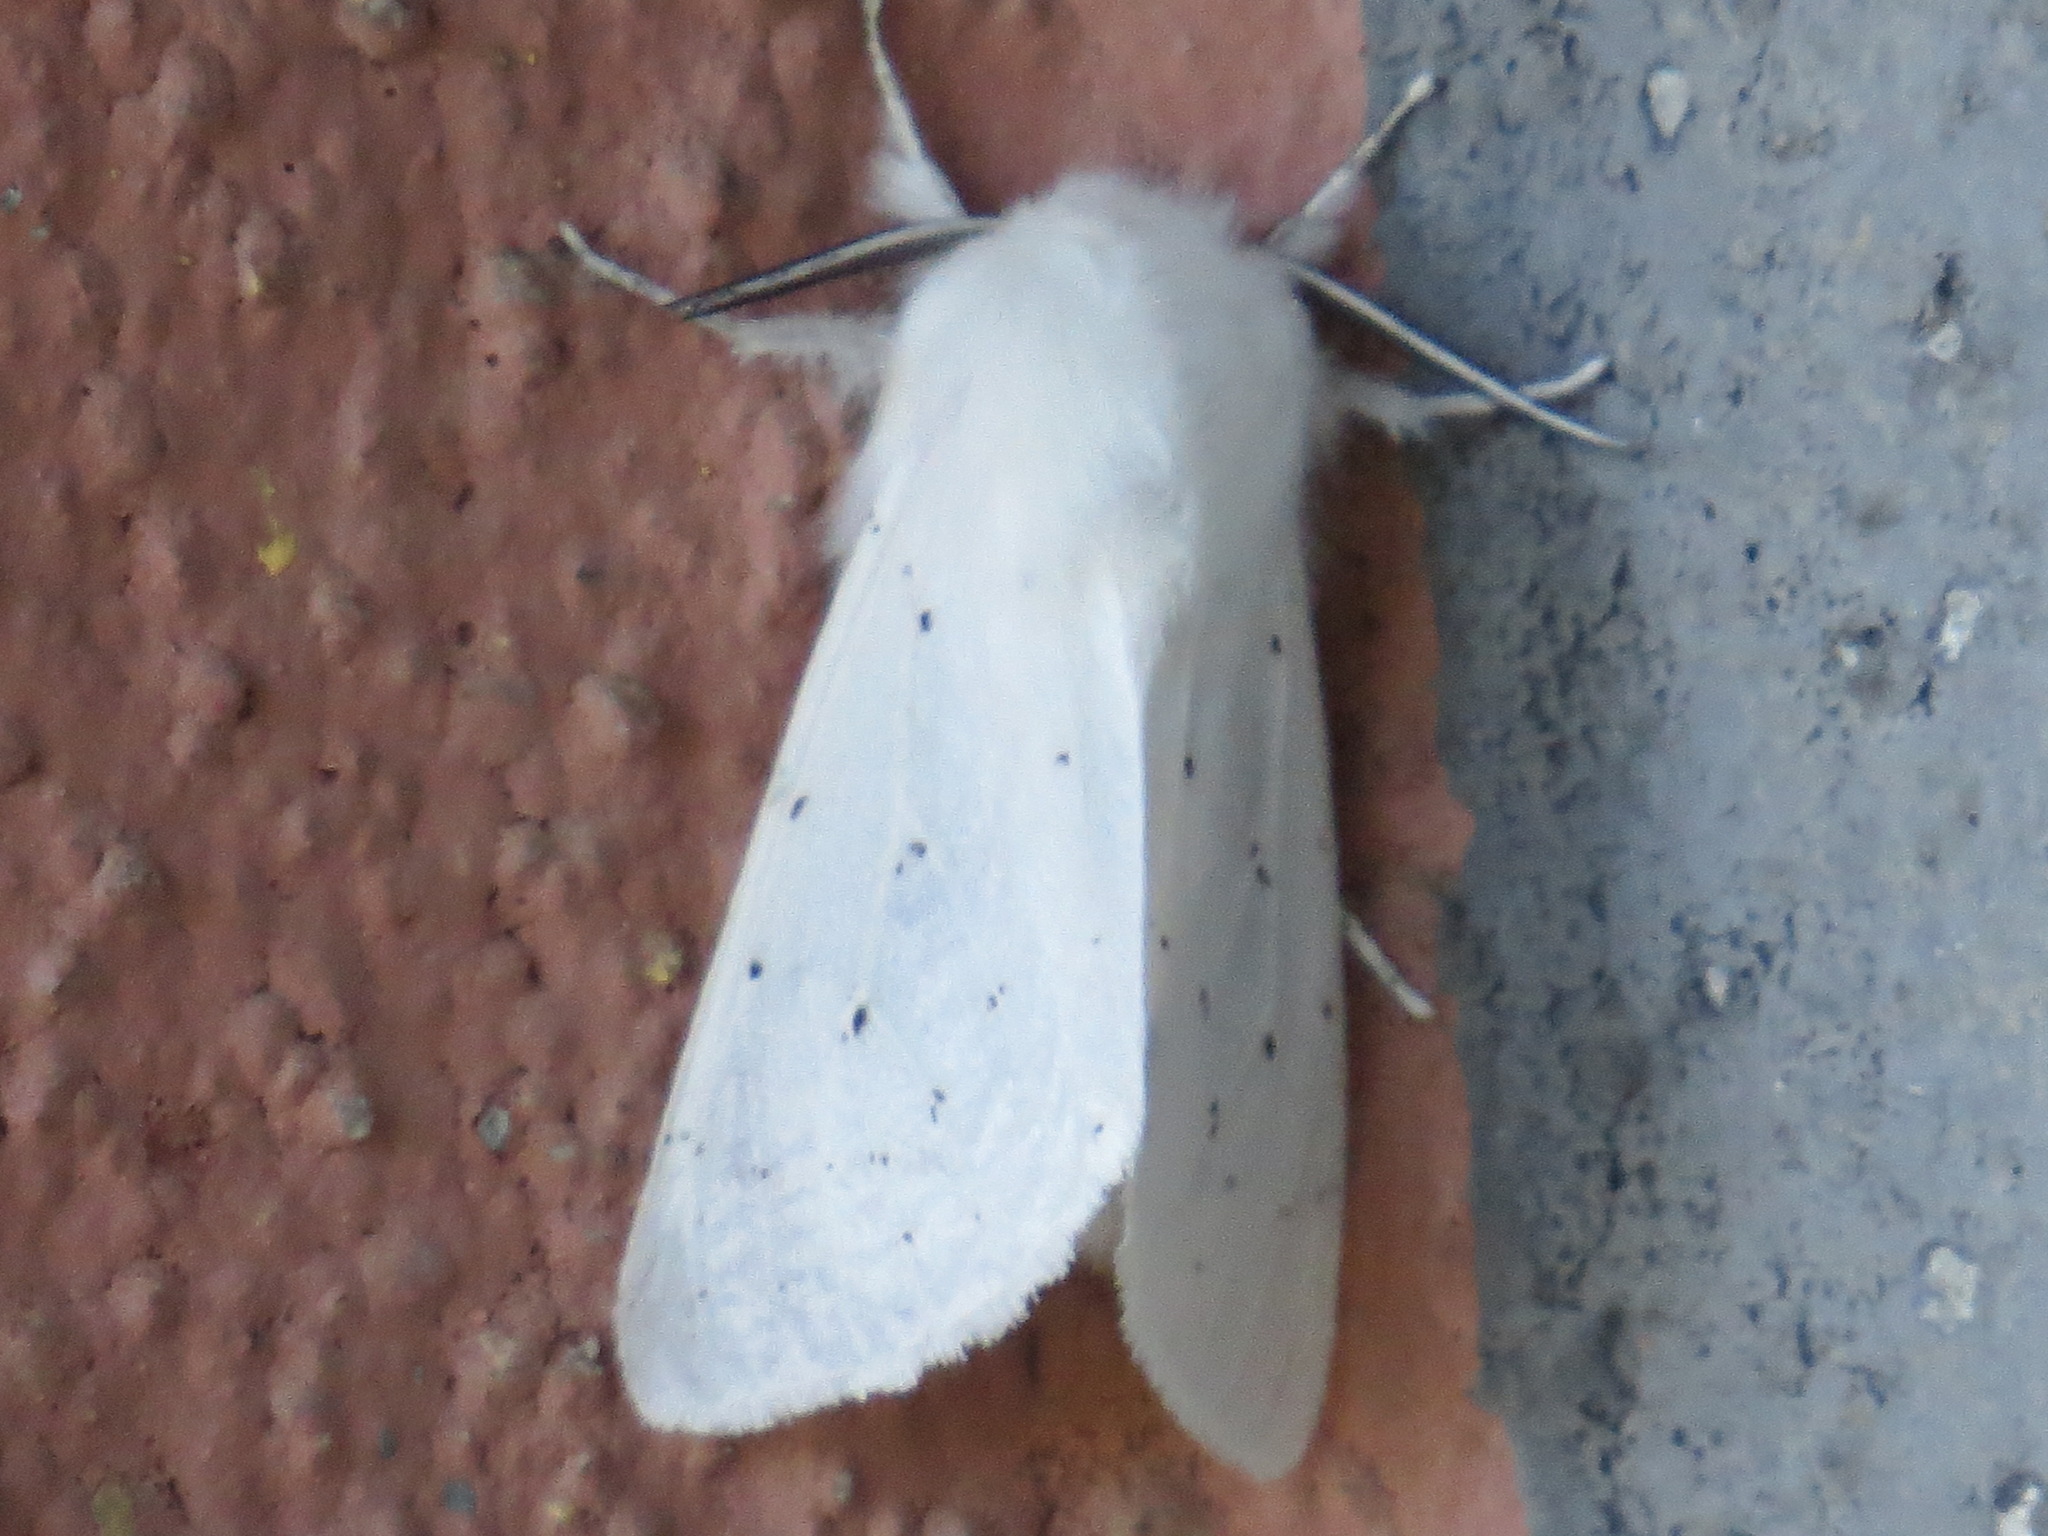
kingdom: Animalia
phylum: Arthropoda
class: Insecta
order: Lepidoptera
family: Erebidae
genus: Spilosoma
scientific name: Spilosoma vestalis
